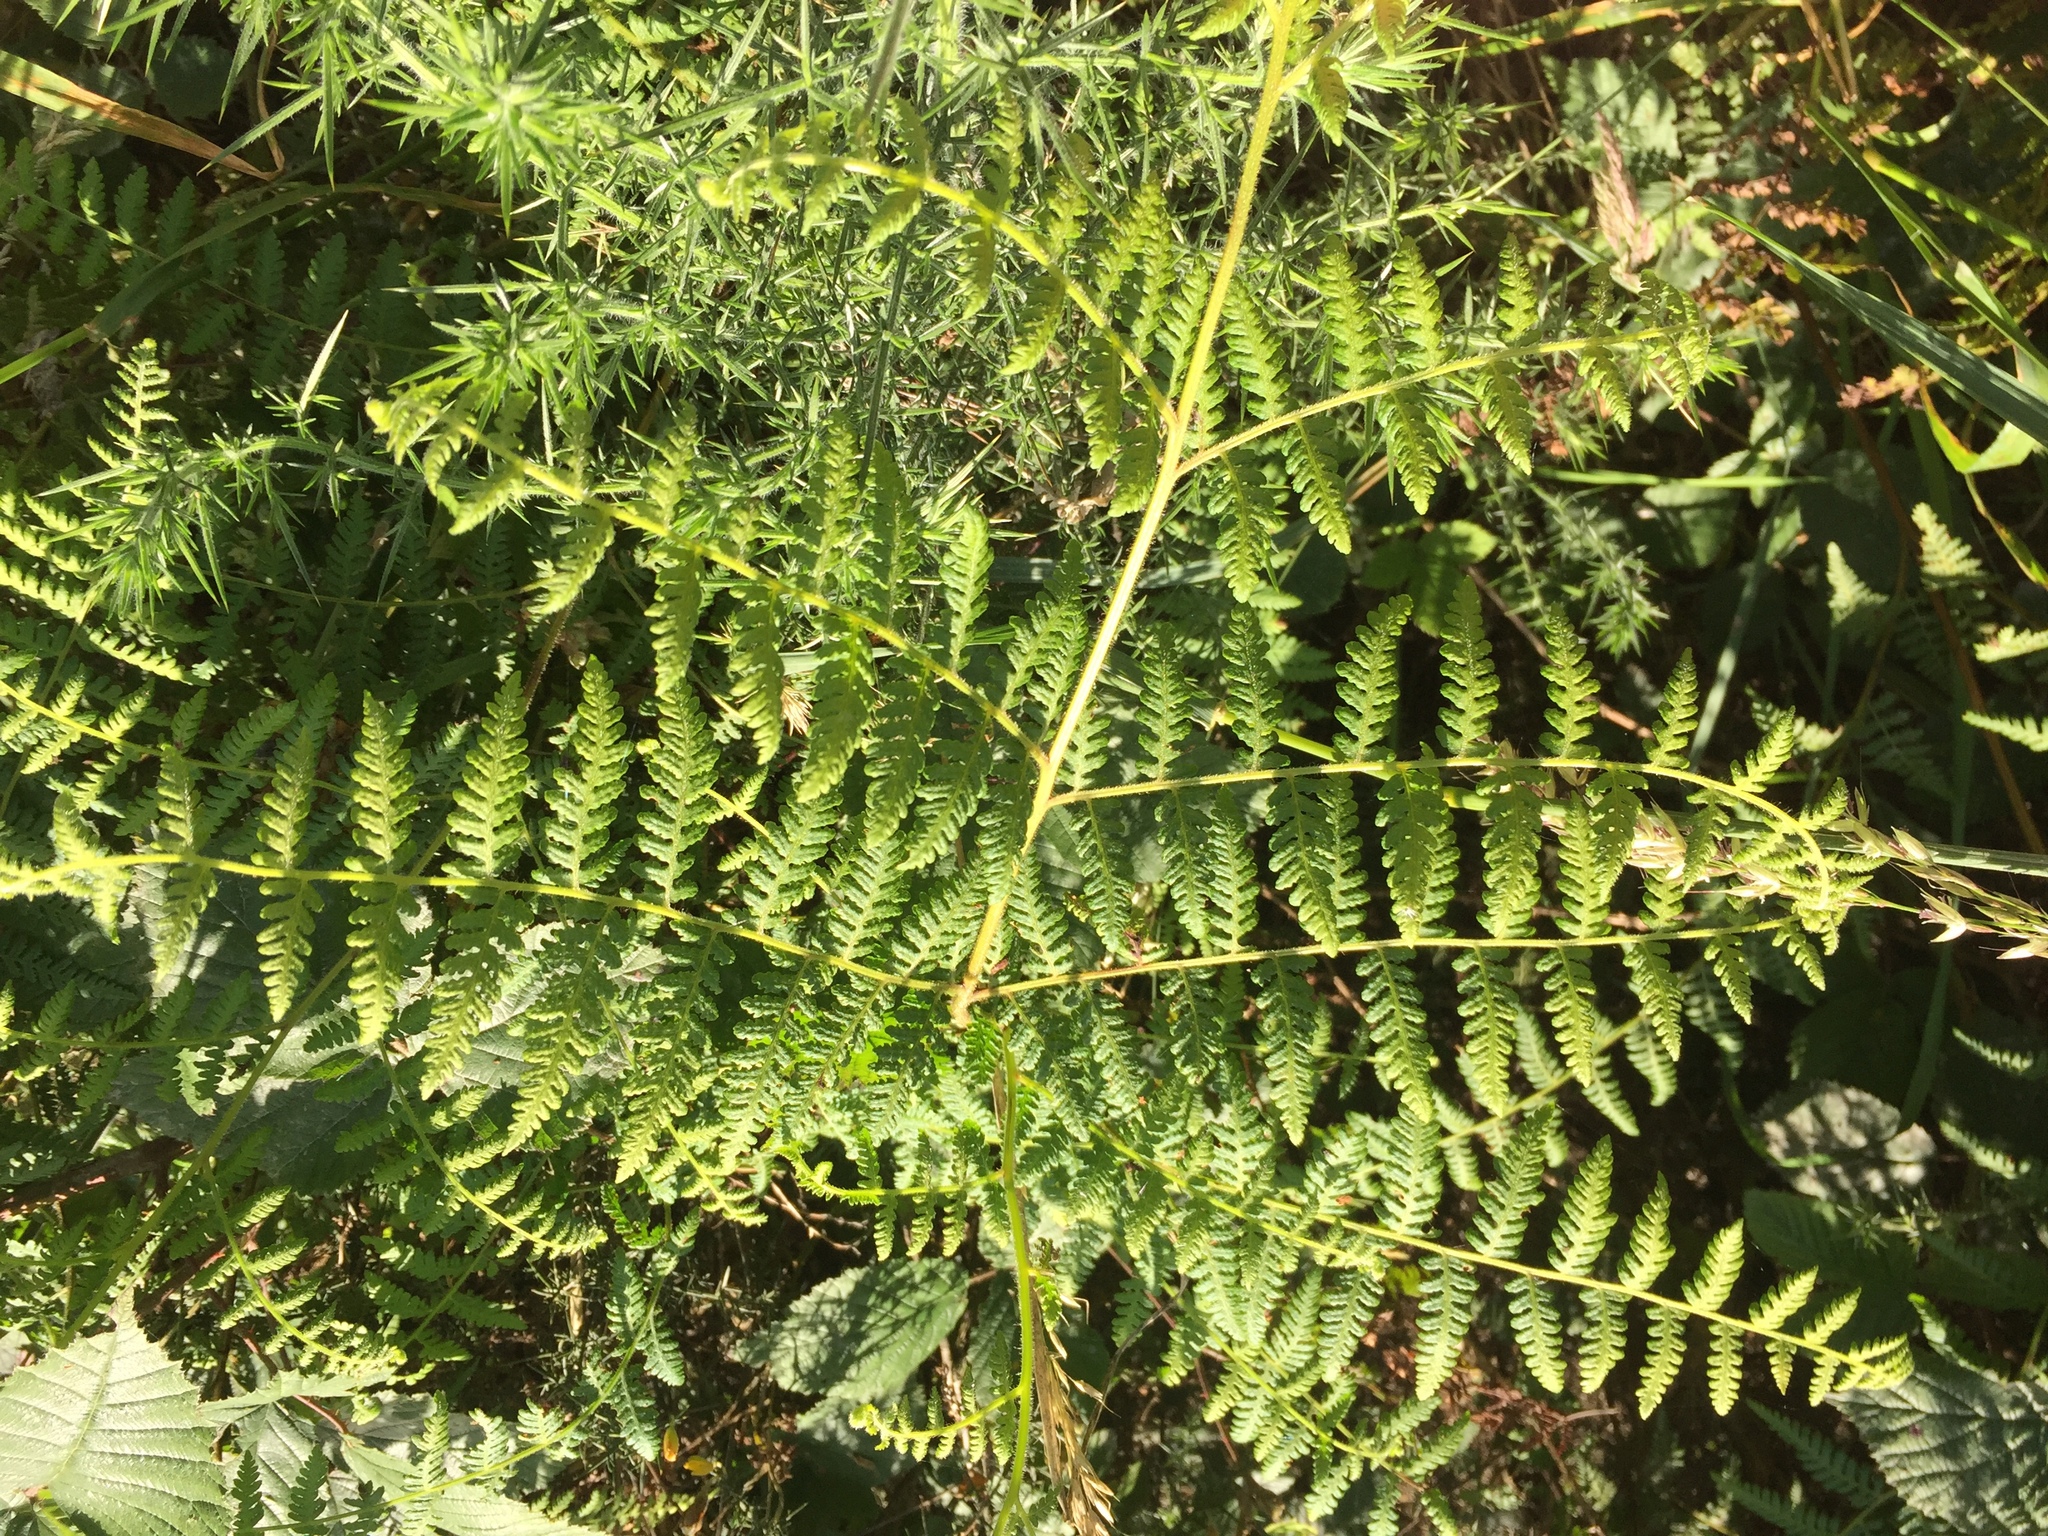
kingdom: Plantae
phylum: Tracheophyta
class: Polypodiopsida
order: Polypodiales
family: Dennstaedtiaceae
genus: Pteridium
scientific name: Pteridium esculentum
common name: Bracken fern
